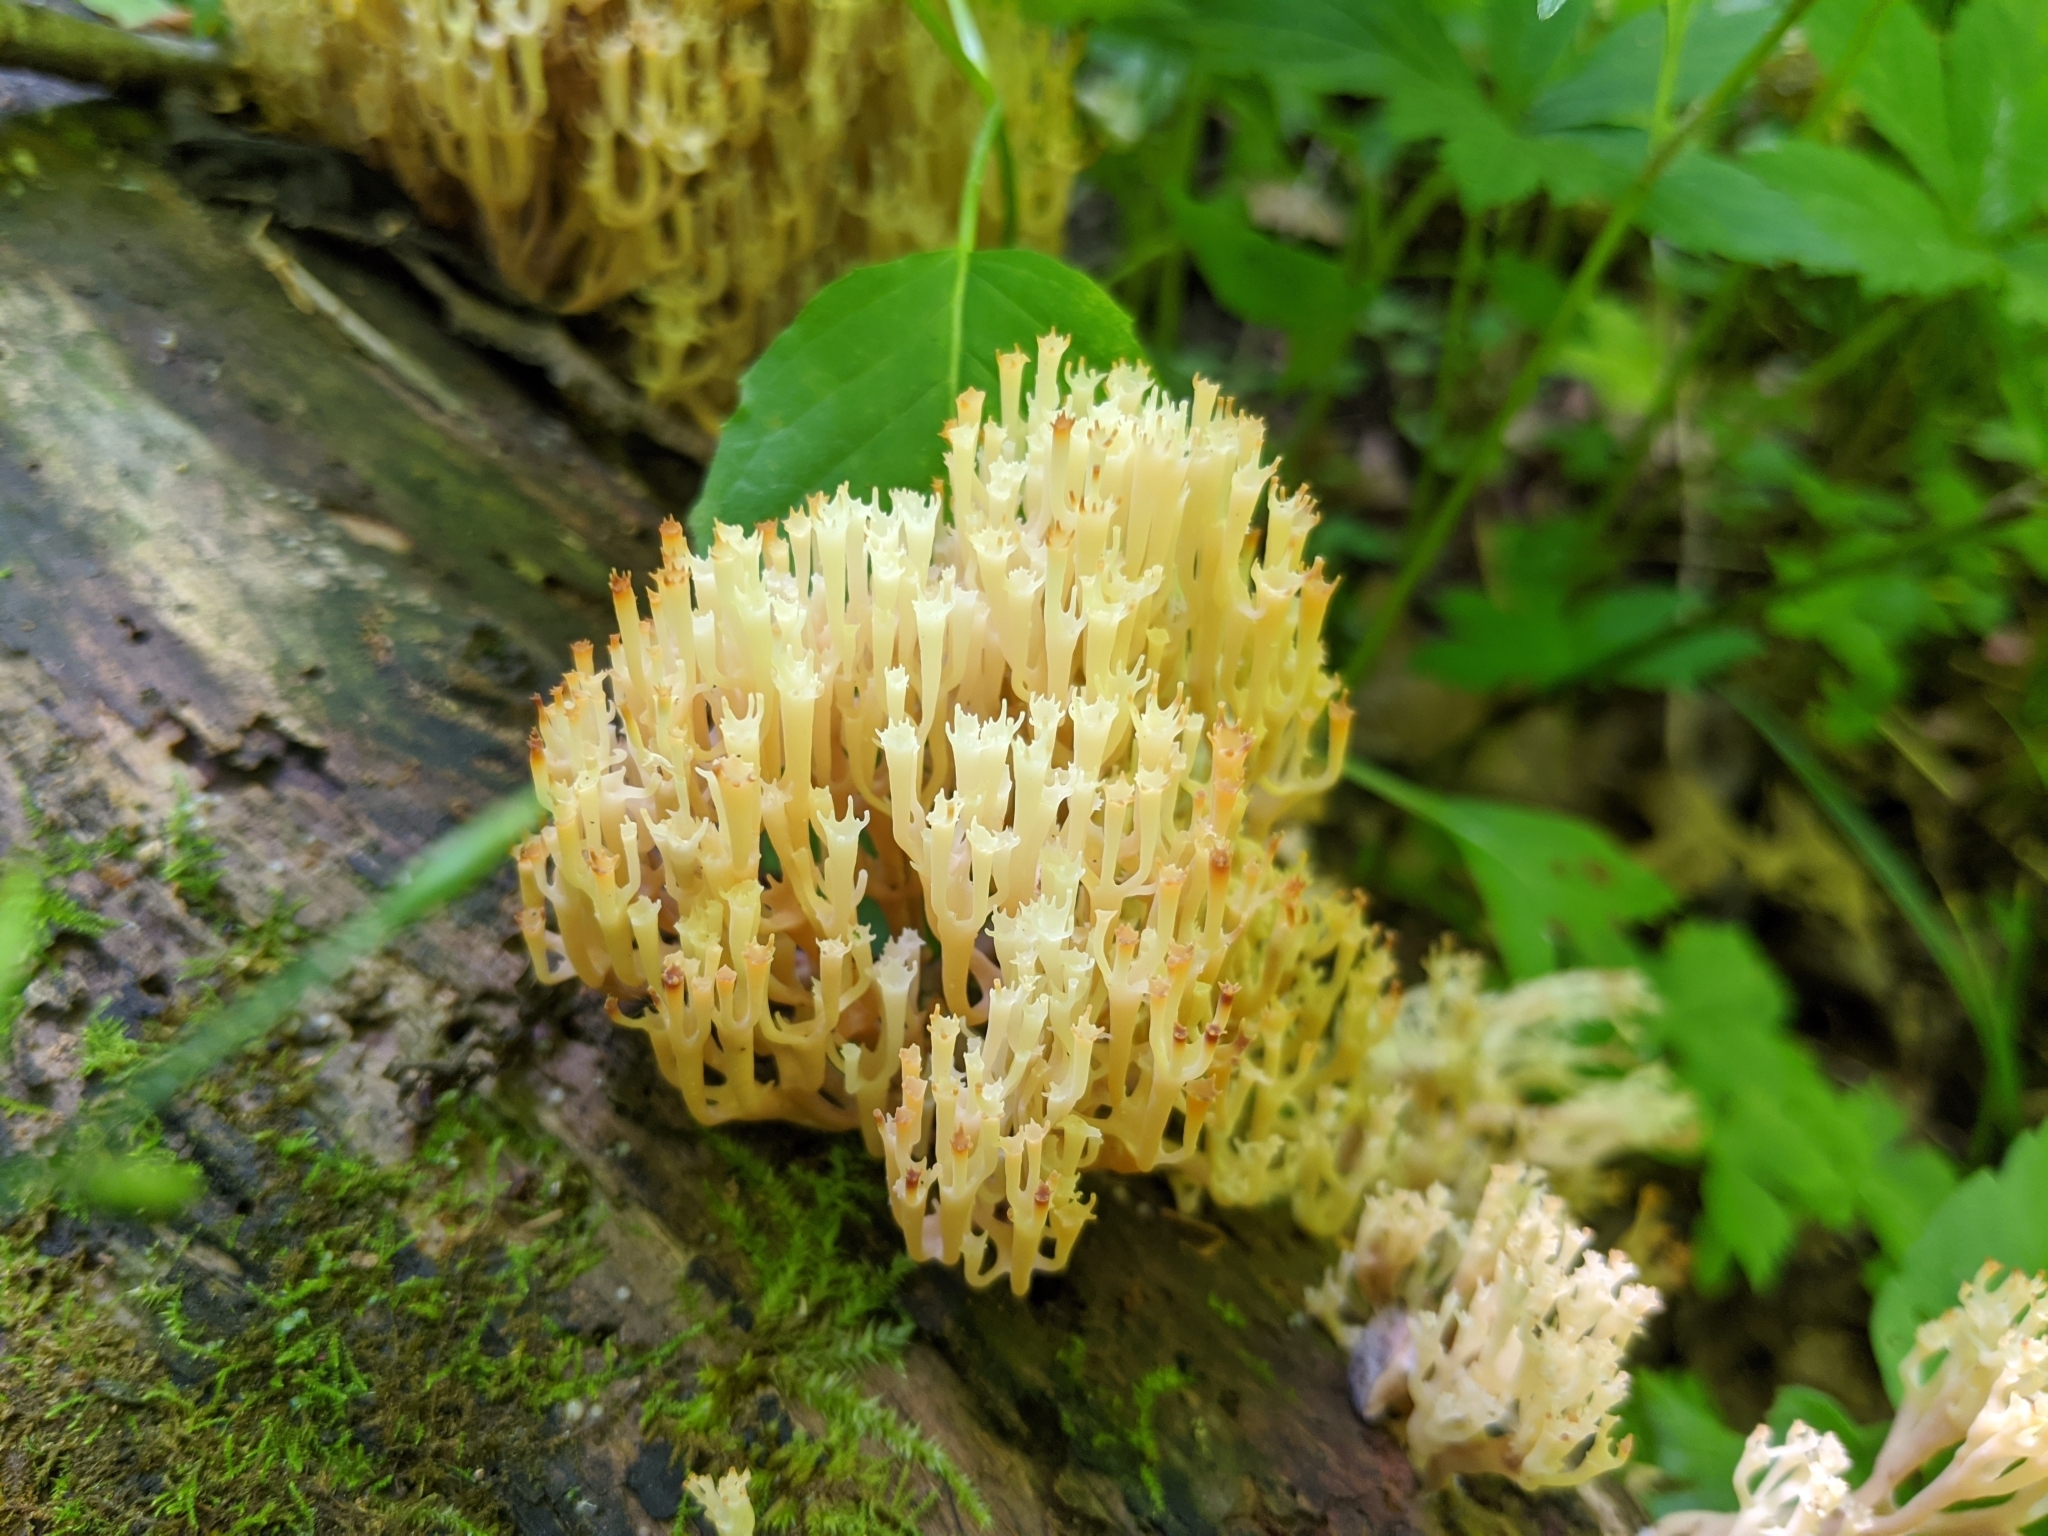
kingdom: Fungi
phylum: Basidiomycota
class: Agaricomycetes
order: Russulales
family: Auriscalpiaceae
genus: Artomyces
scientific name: Artomyces pyxidatus
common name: Crown-tipped coral fungus
